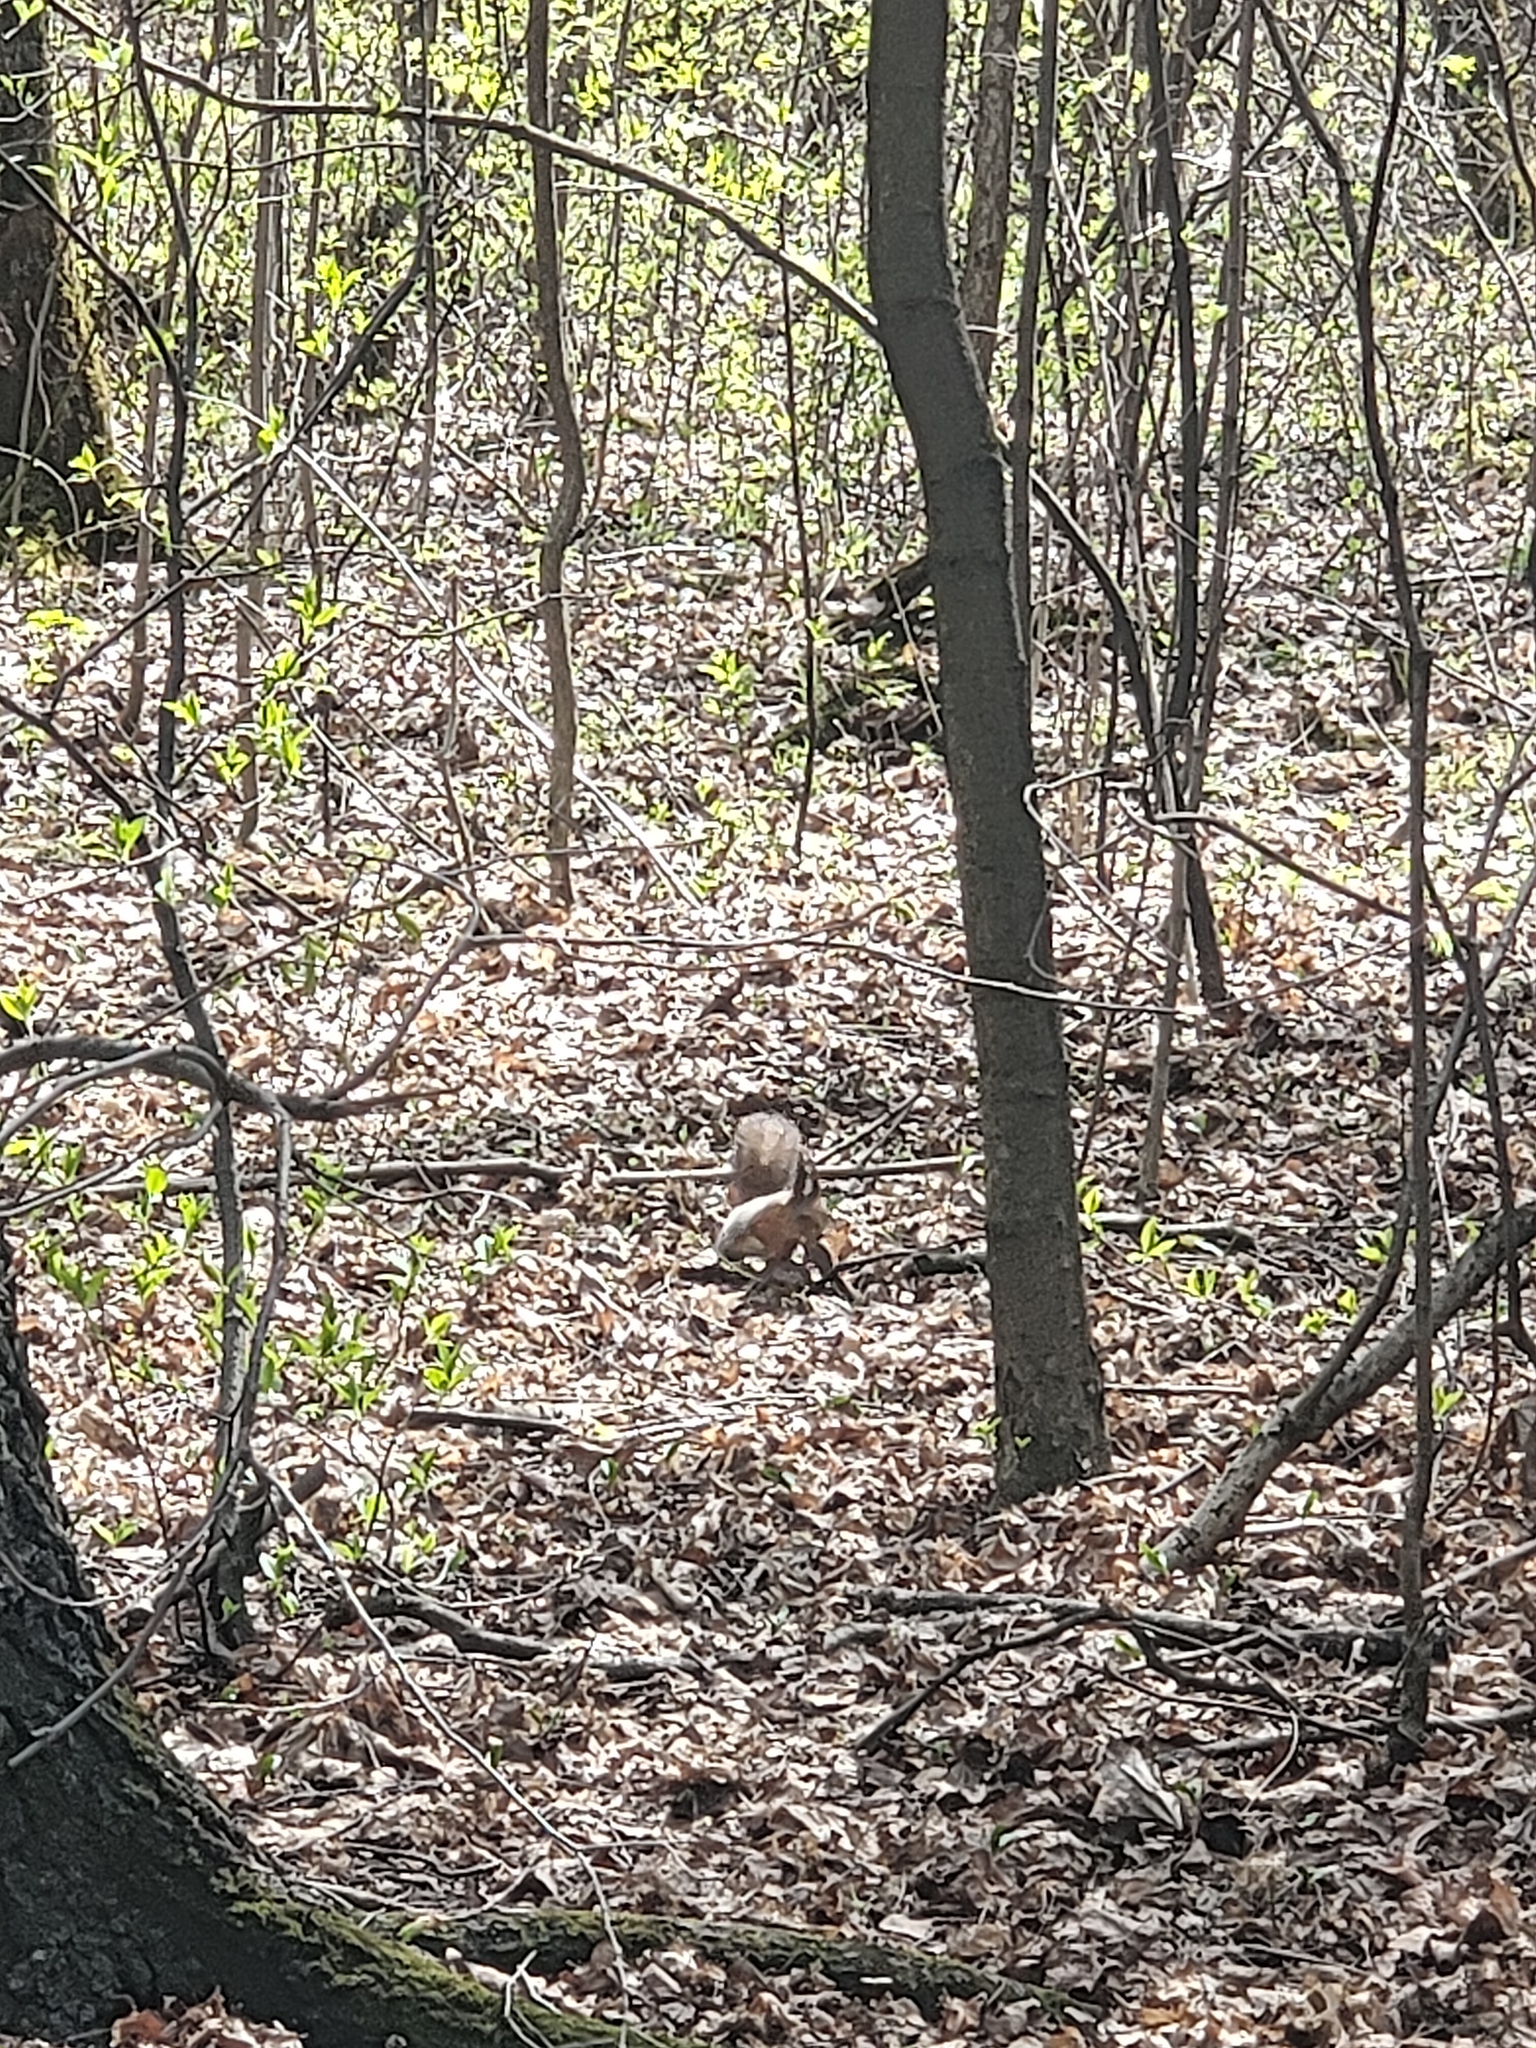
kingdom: Animalia
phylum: Chordata
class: Mammalia
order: Rodentia
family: Sciuridae
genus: Sciurus
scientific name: Sciurus vulgaris
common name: Eurasian red squirrel
